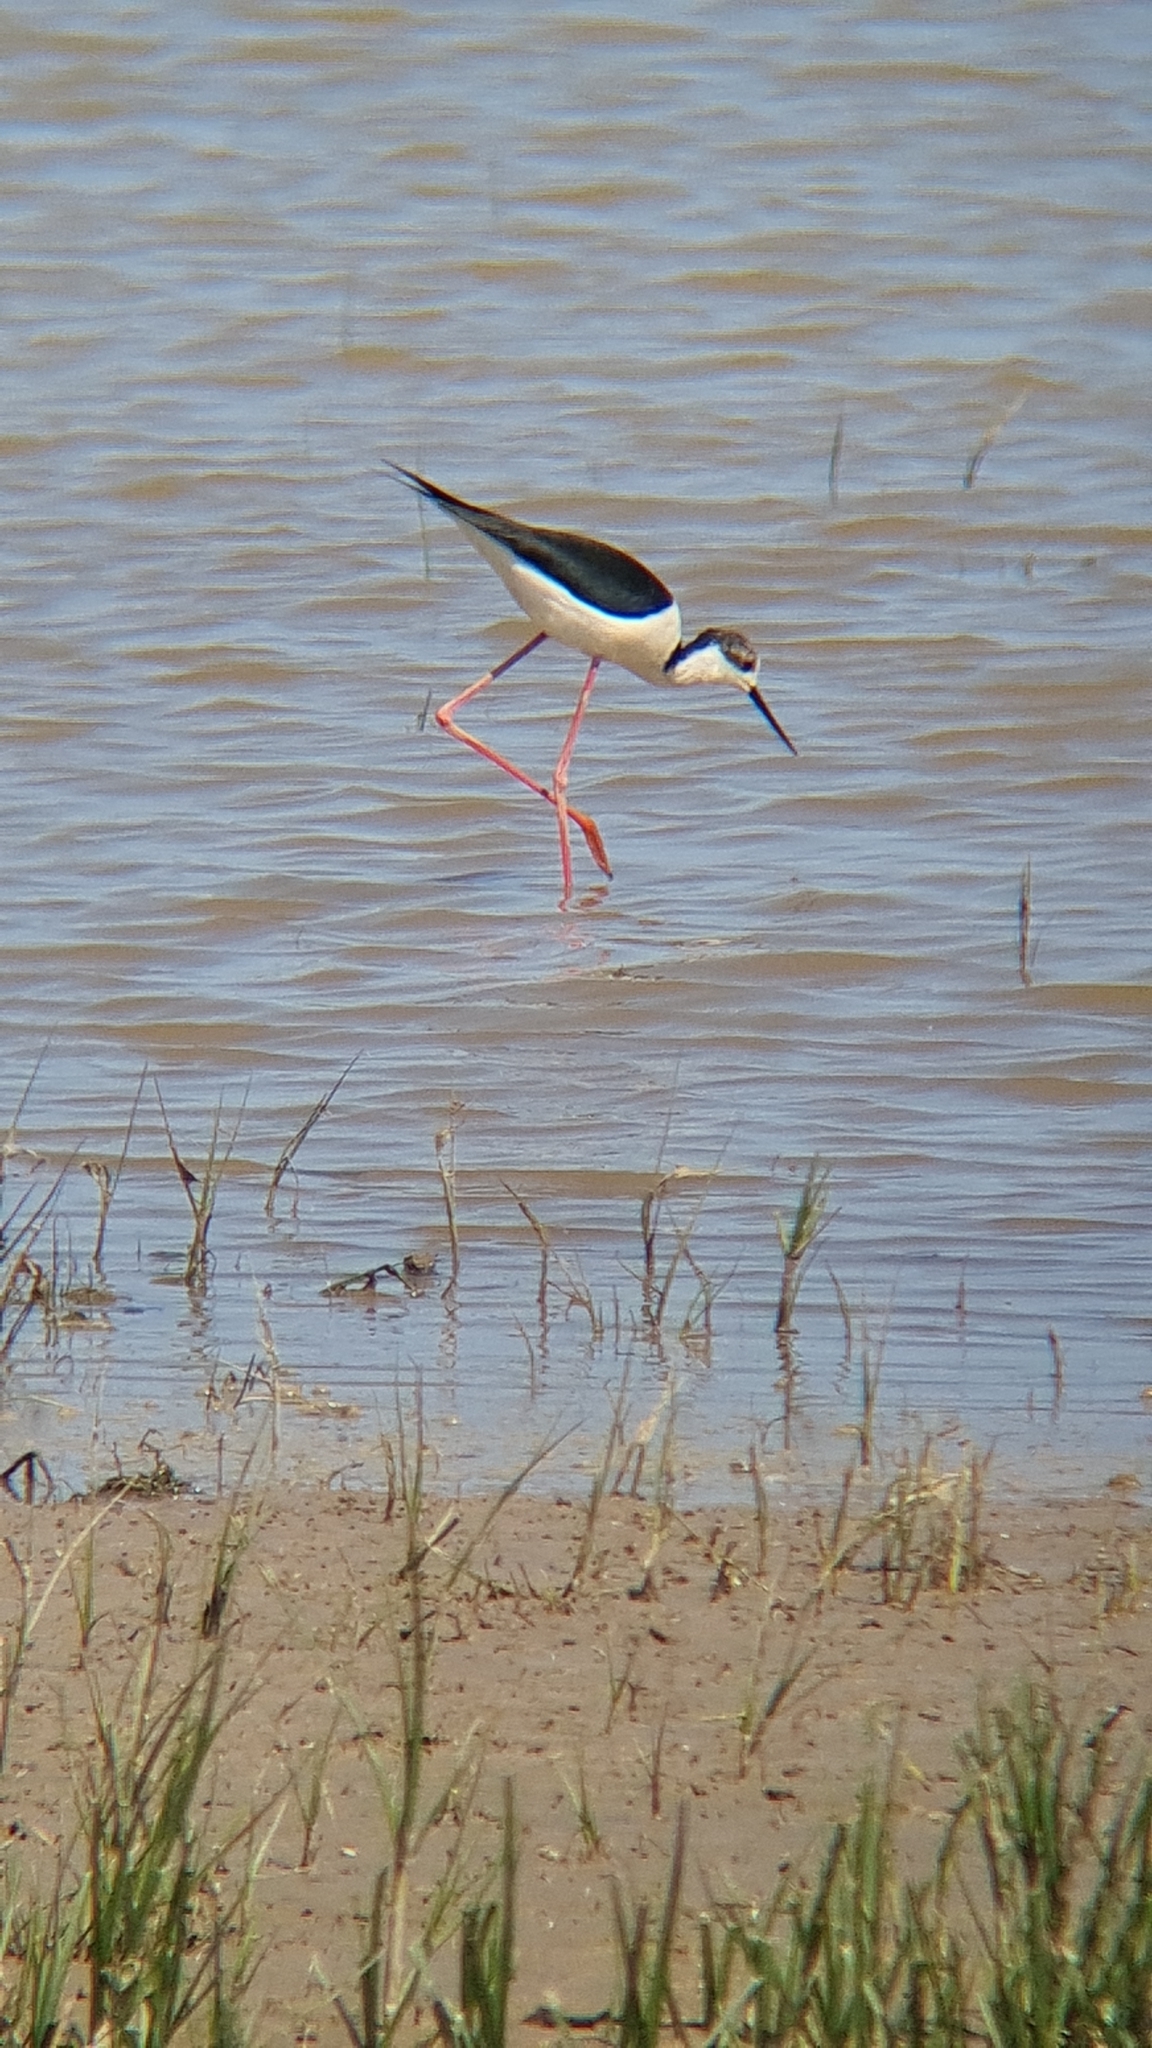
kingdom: Animalia
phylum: Chordata
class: Aves
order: Charadriiformes
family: Recurvirostridae
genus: Himantopus
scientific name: Himantopus himantopus
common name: Black-winged stilt
